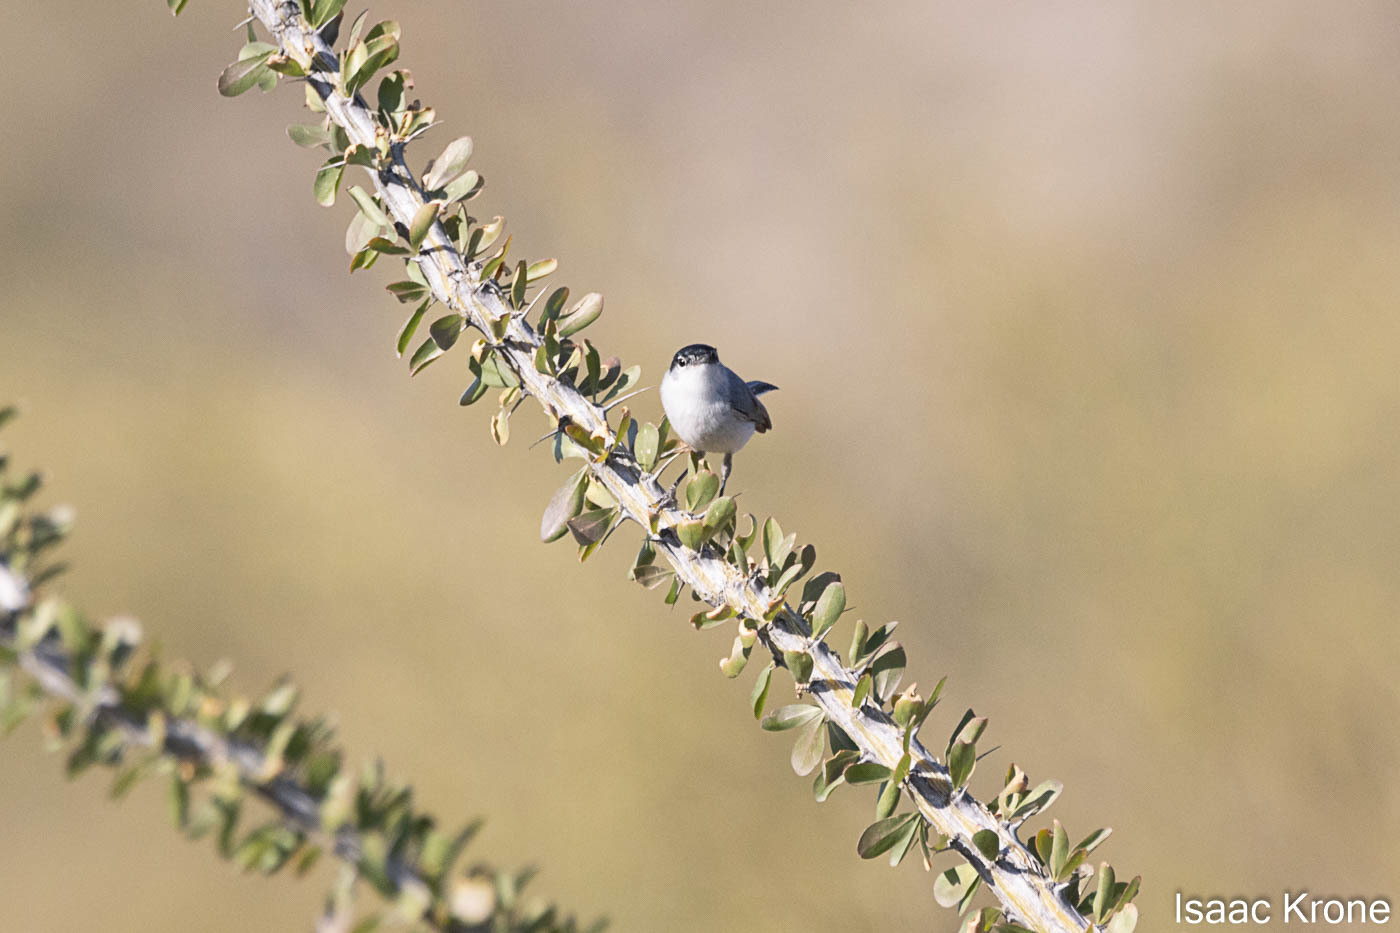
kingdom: Animalia
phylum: Chordata
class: Aves
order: Passeriformes
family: Polioptilidae
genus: Polioptila
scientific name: Polioptila melanura
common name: Black-tailed gnatcatcher
